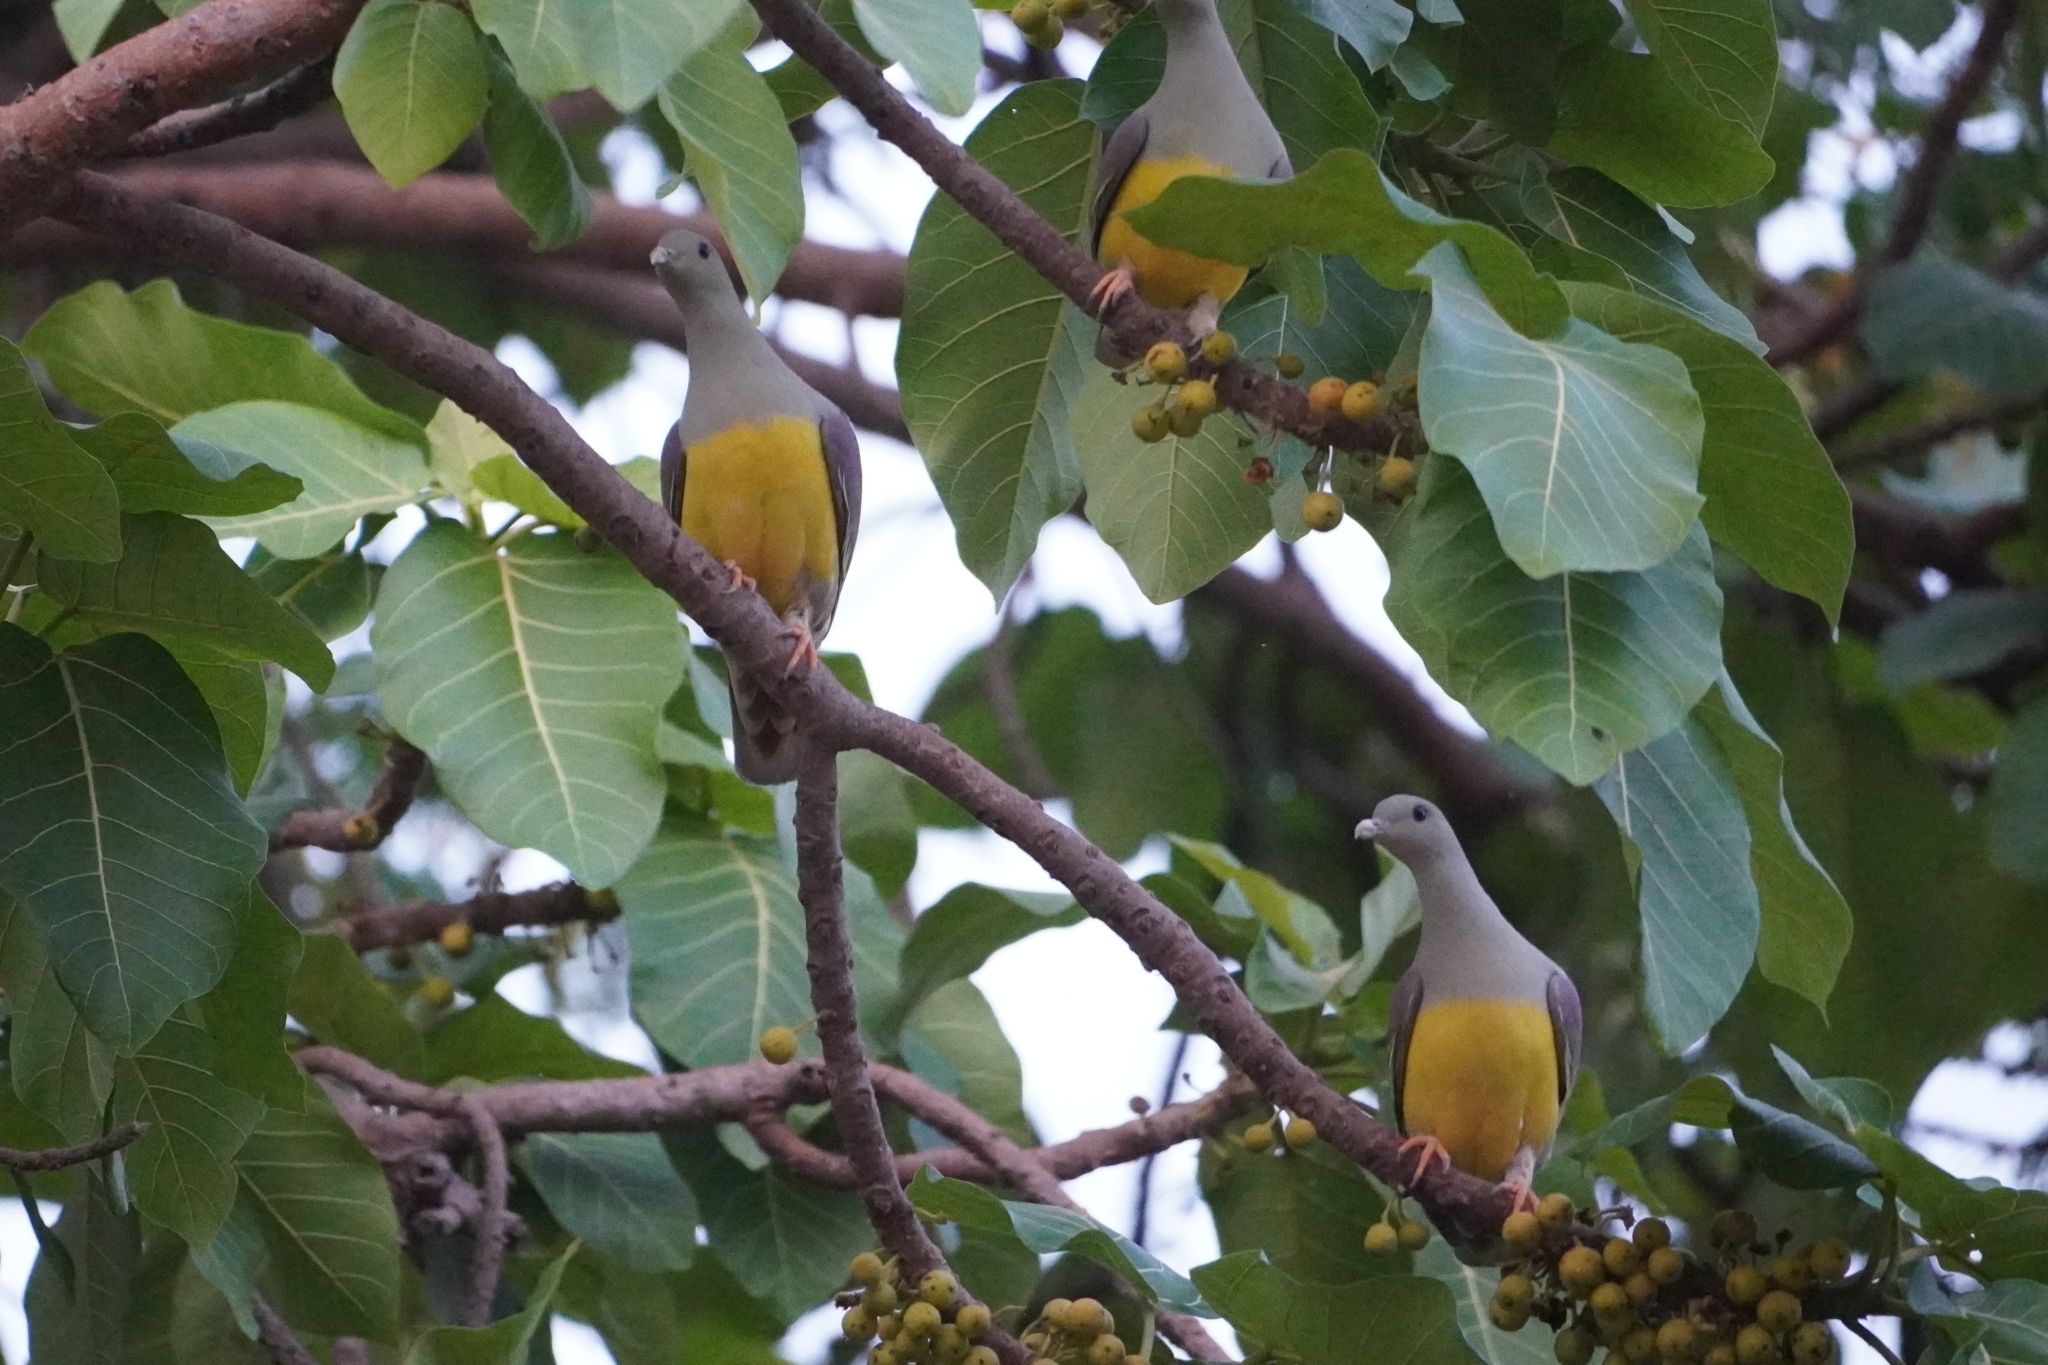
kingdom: Animalia
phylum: Chordata
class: Aves
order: Columbiformes
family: Columbidae
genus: Treron
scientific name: Treron waalia
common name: Bruce's green pigeon
